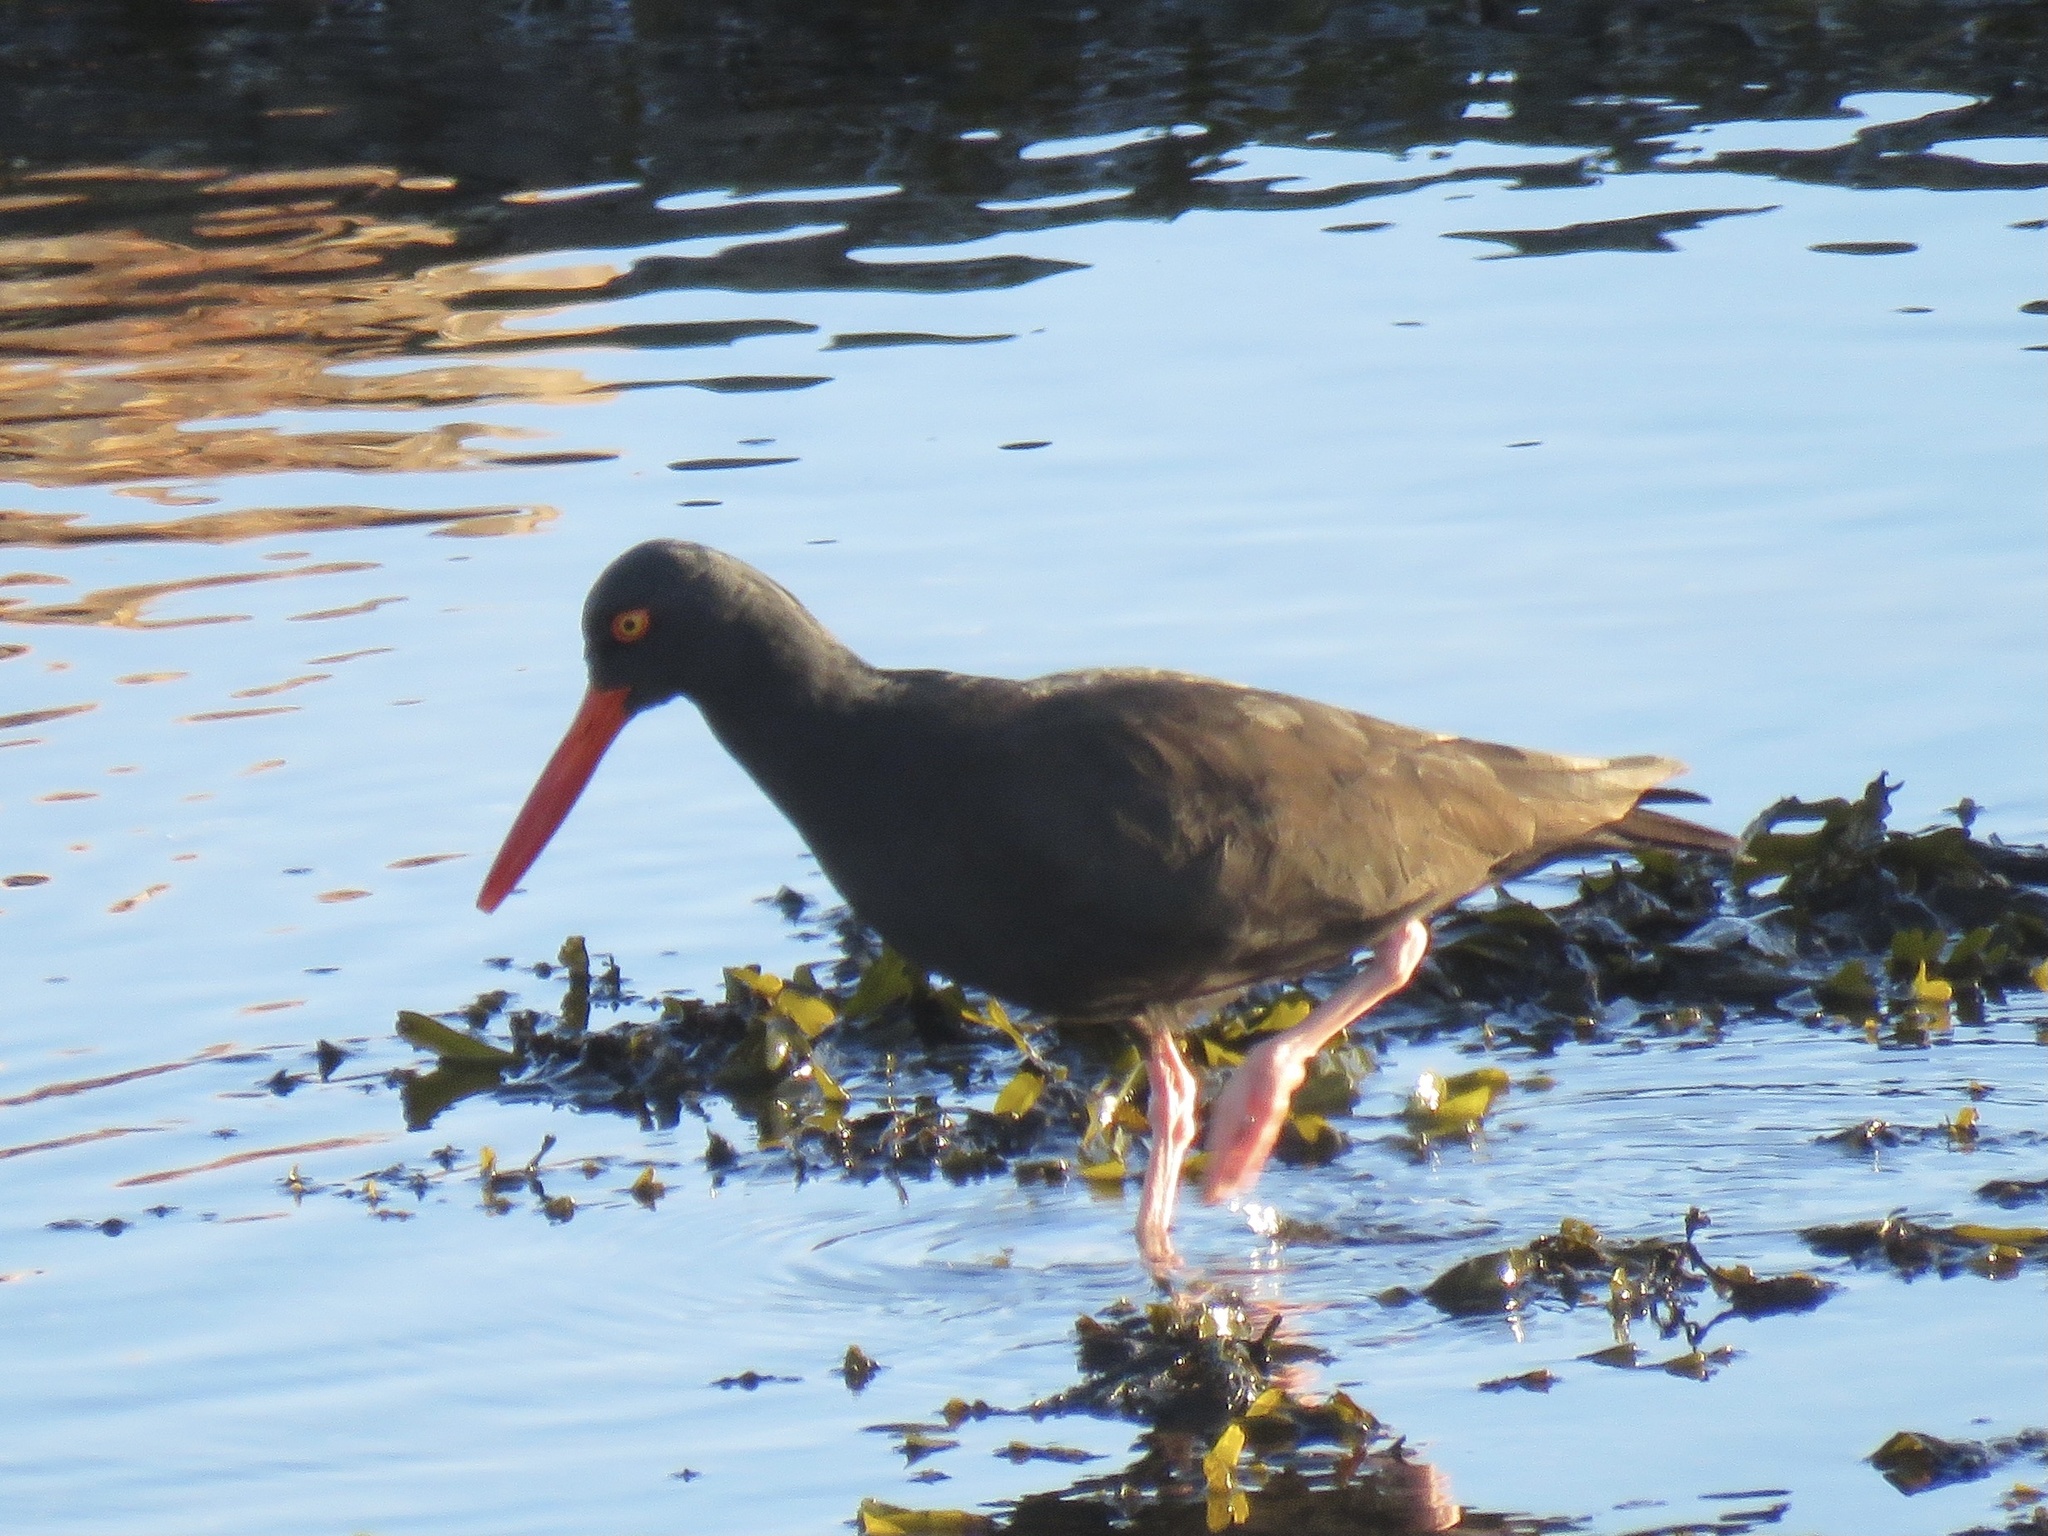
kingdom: Animalia
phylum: Chordata
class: Aves
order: Charadriiformes
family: Haematopodidae
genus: Haematopus
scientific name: Haematopus bachmani
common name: Black oystercatcher
